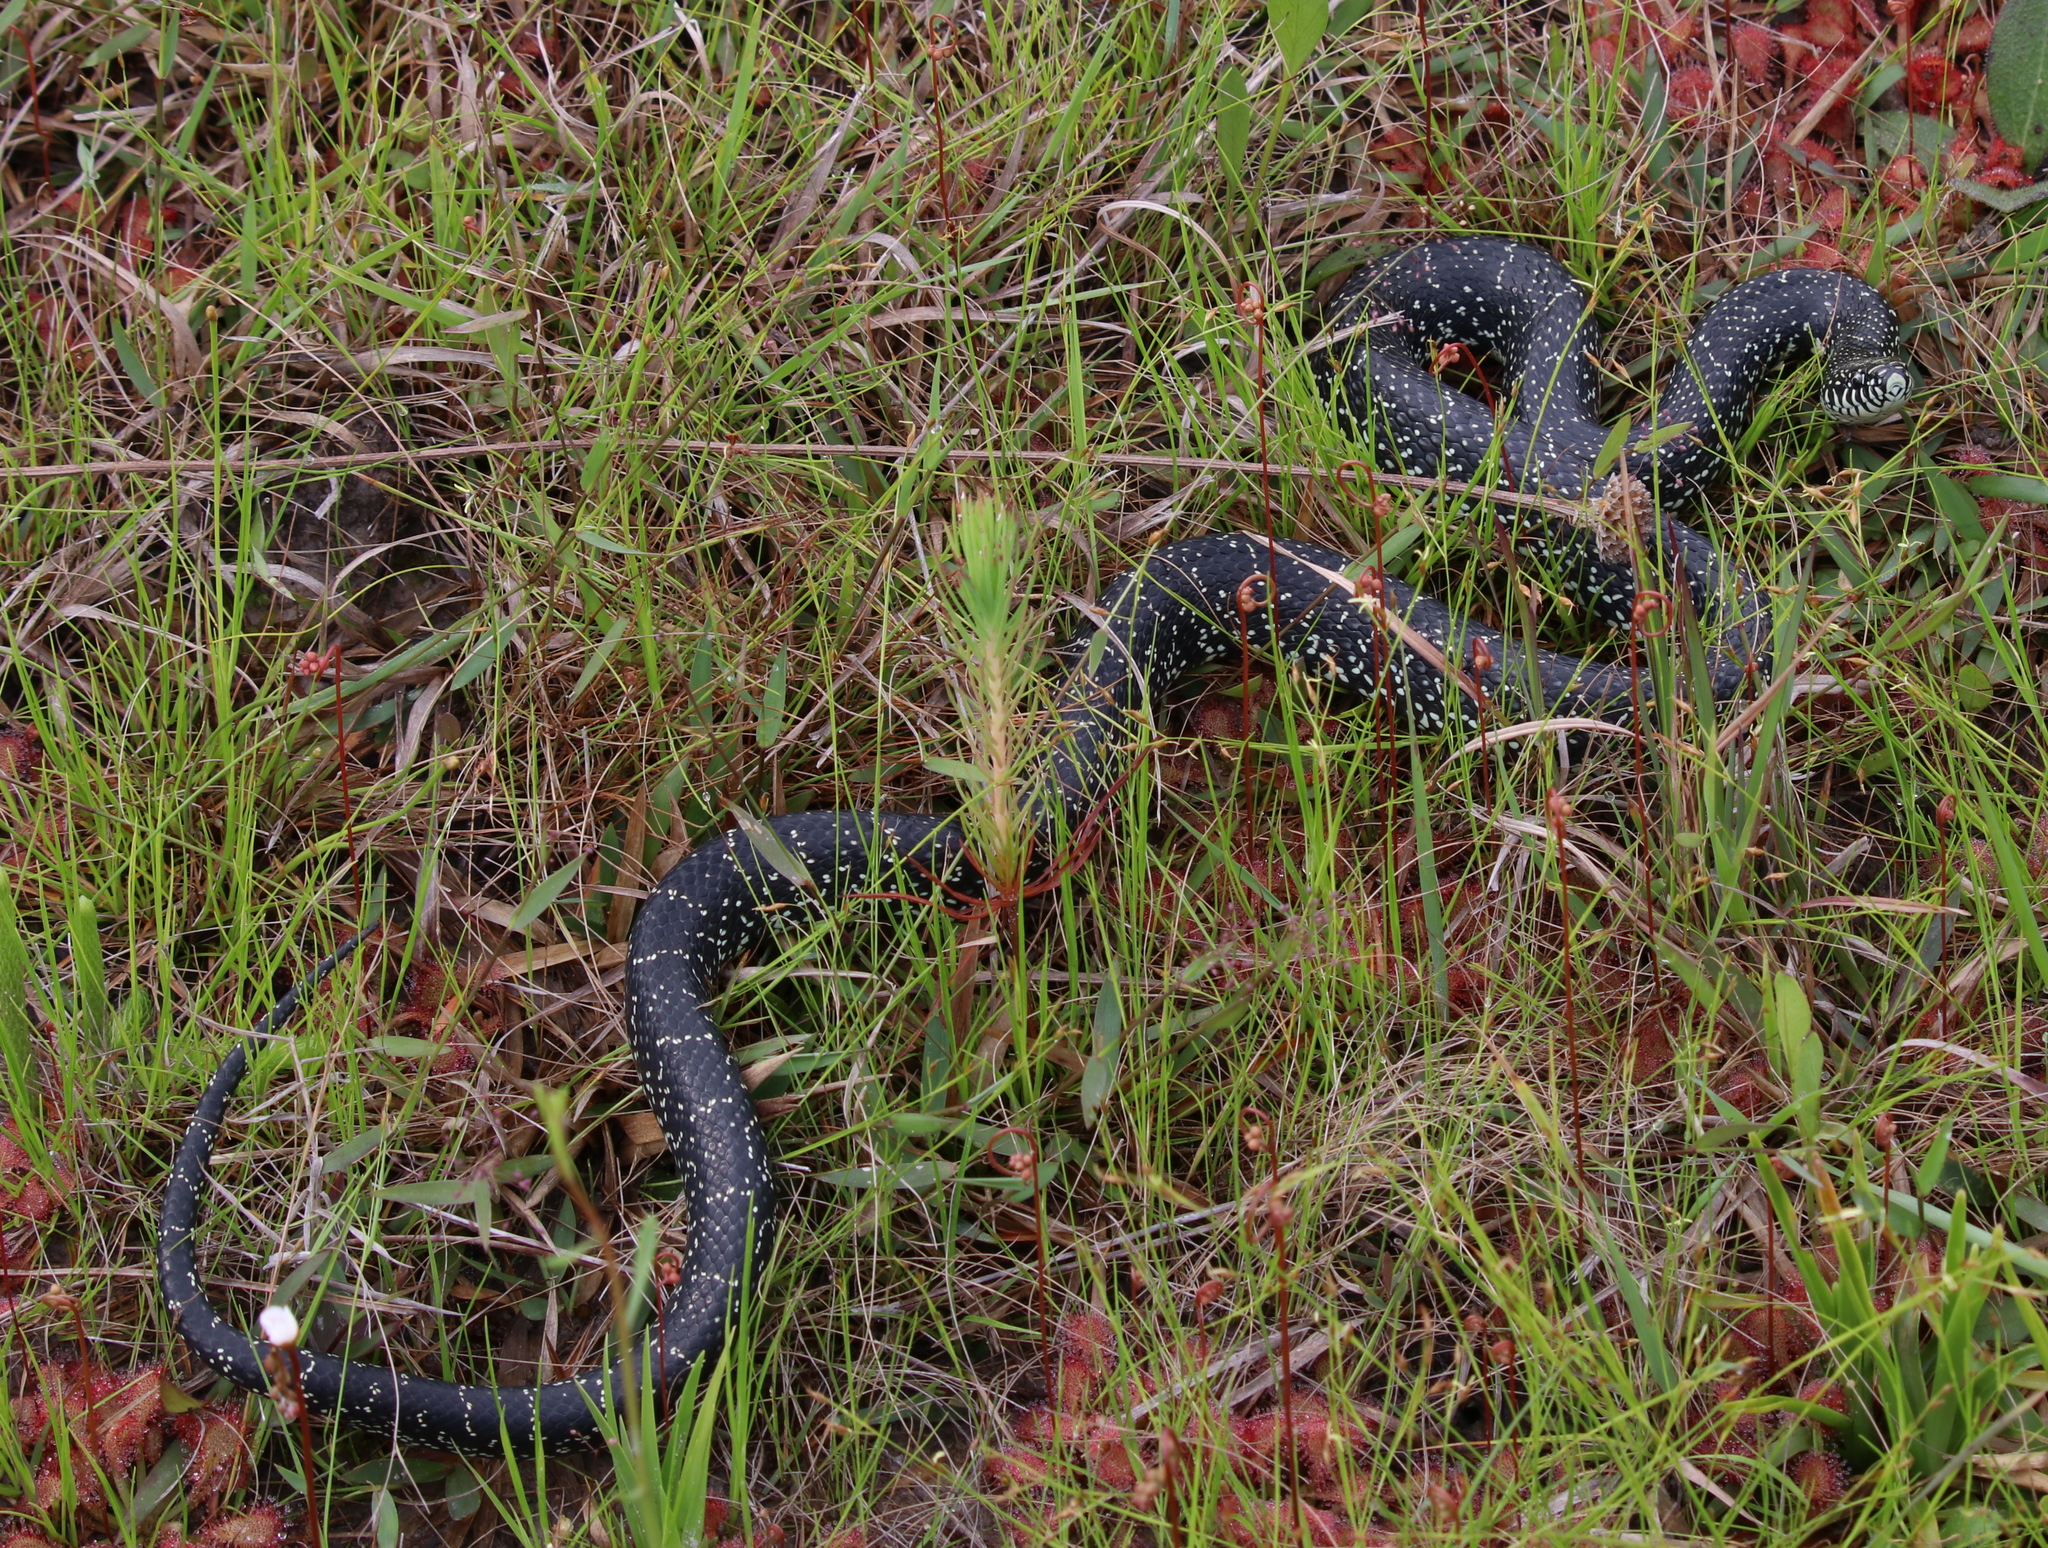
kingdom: Animalia
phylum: Chordata
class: Squamata
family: Colubridae
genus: Lampropeltis
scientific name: Lampropeltis
